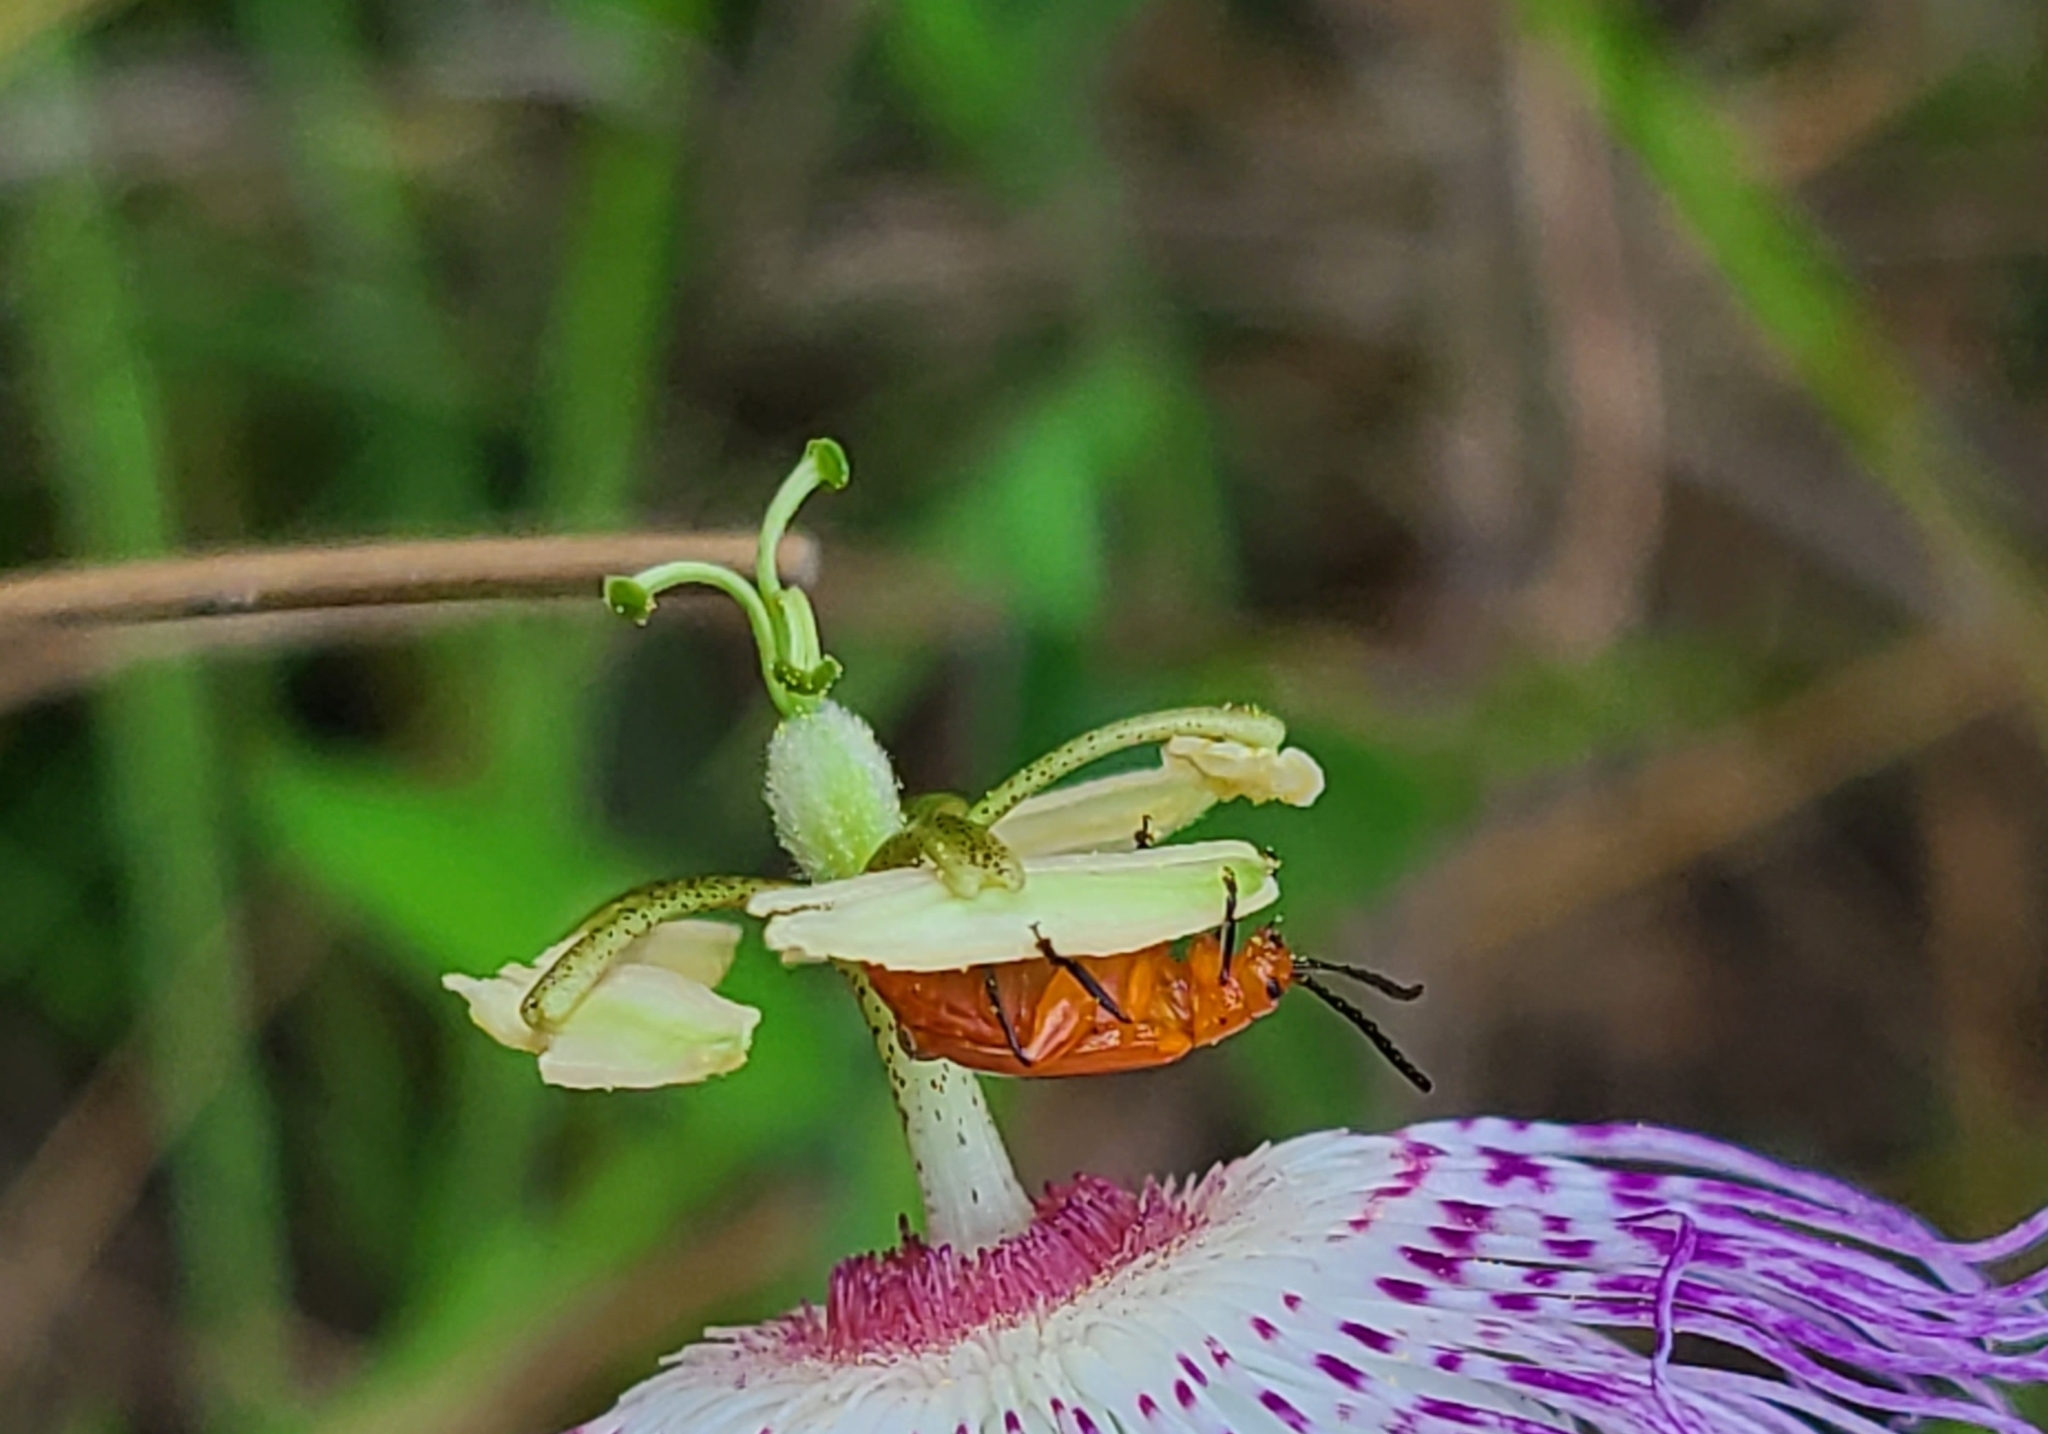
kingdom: Animalia
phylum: Arthropoda
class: Insecta
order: Coleoptera
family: Chrysomelidae
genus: Disonycha
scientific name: Disonycha discoidea
